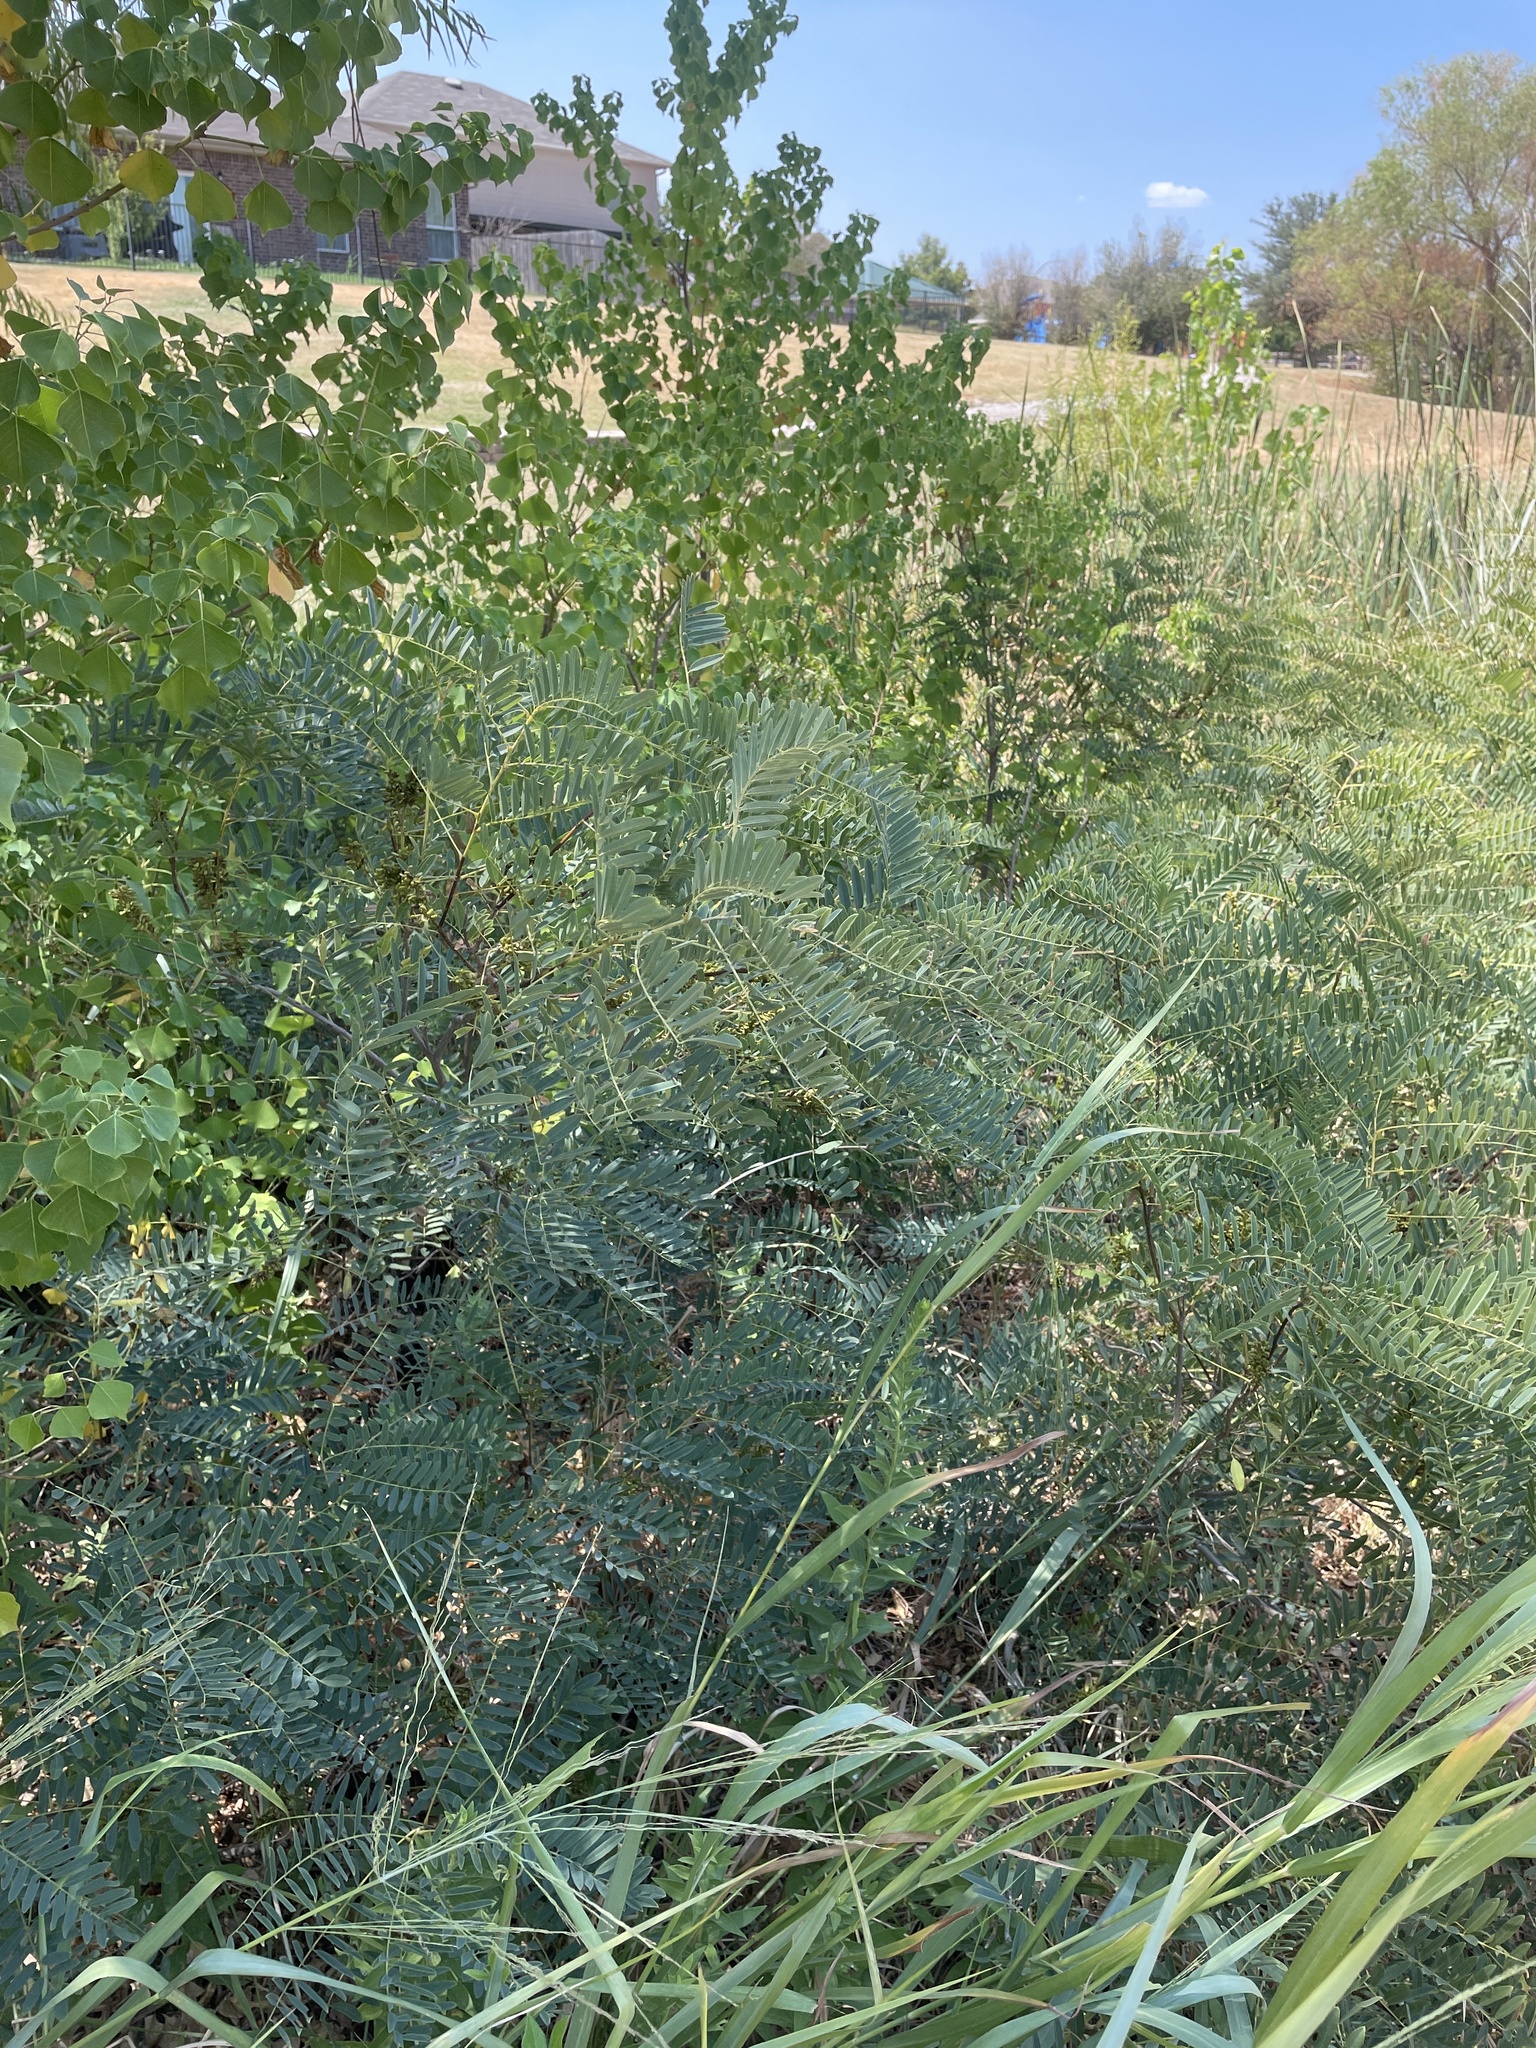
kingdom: Plantae
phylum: Tracheophyta
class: Magnoliopsida
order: Fabales
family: Fabaceae
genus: Amorpha
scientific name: Amorpha fruticosa
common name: False indigo
